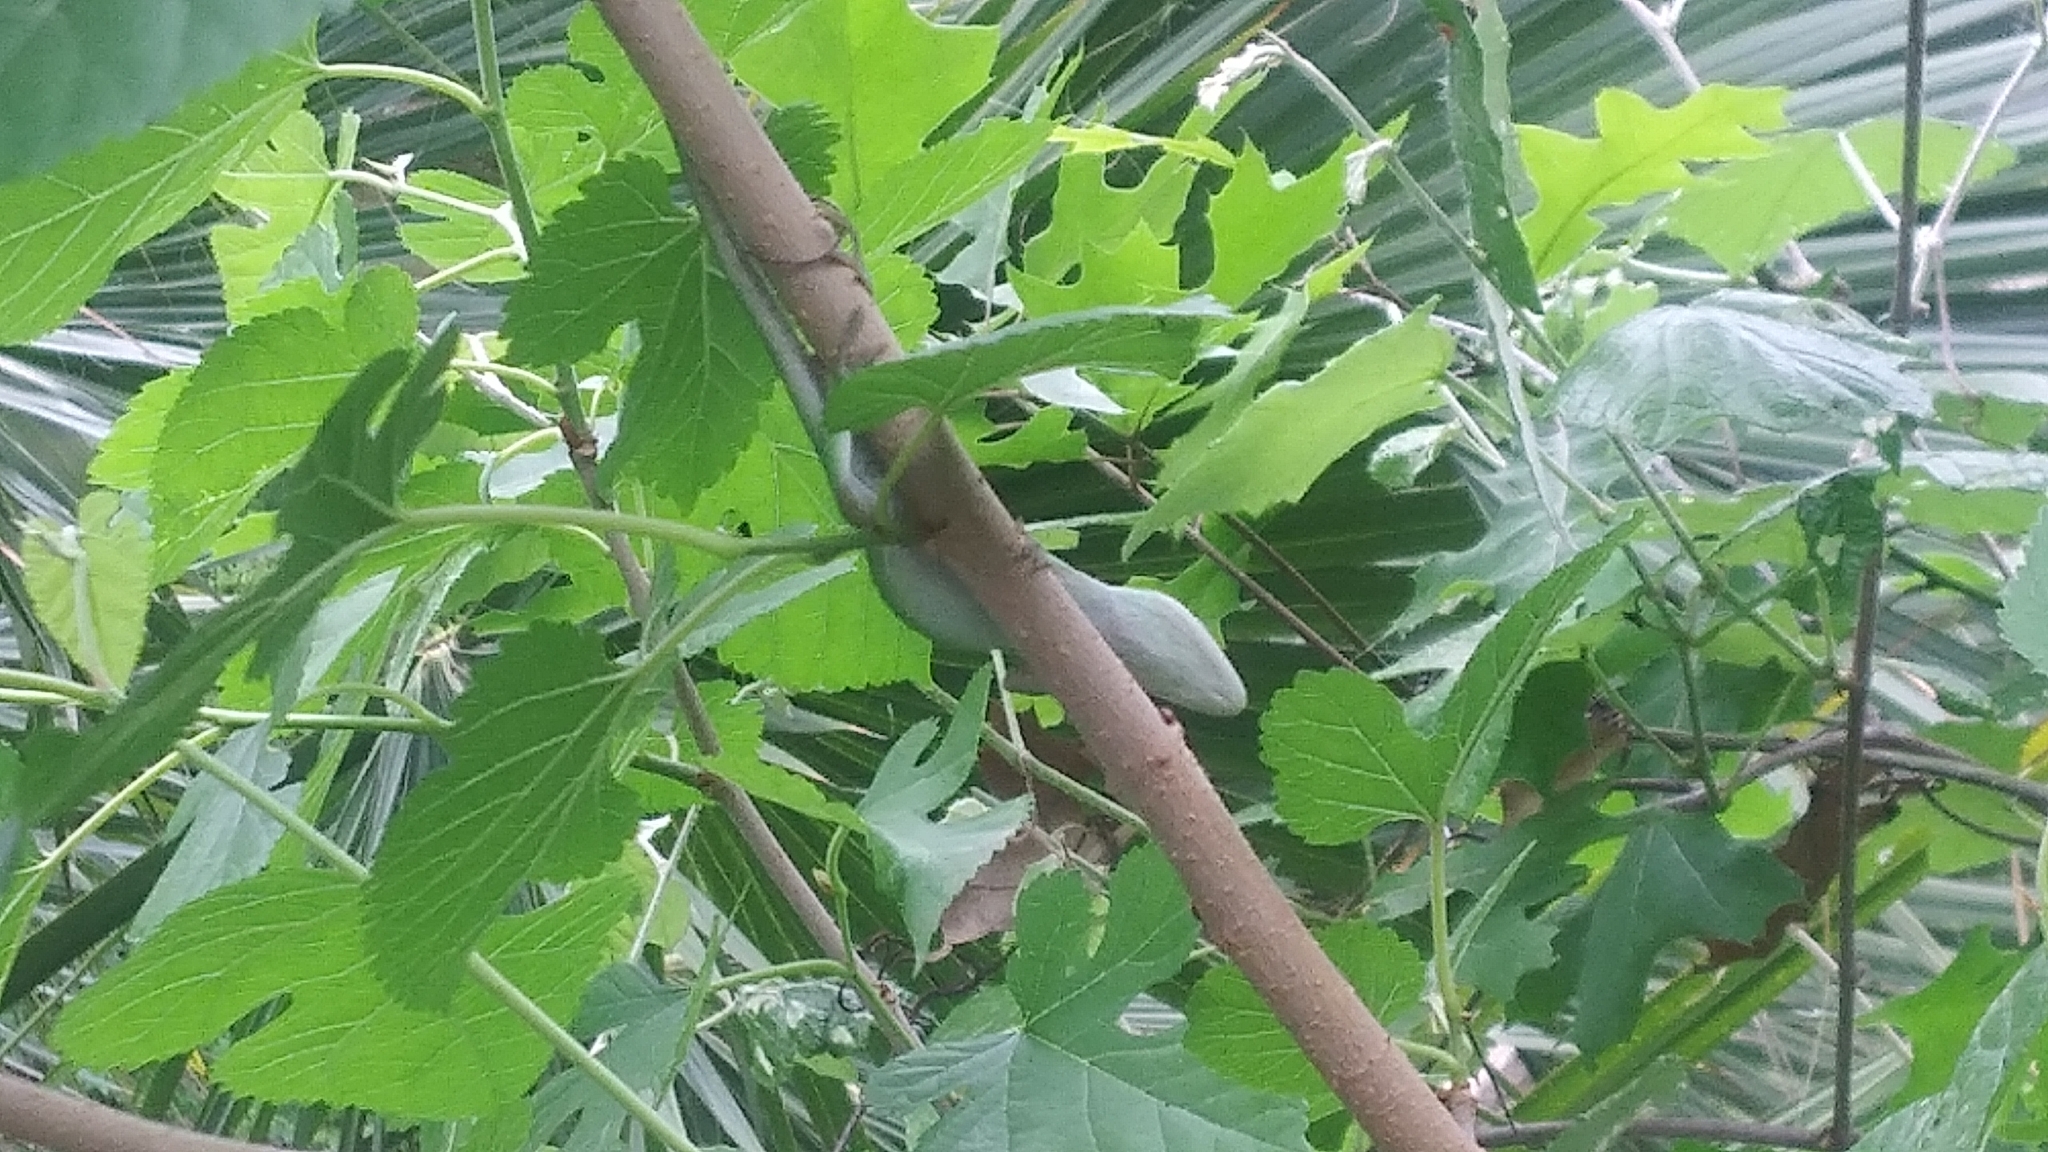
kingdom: Animalia
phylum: Chordata
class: Squamata
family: Dactyloidae
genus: Anolis
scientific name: Anolis carolinensis
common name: Green anole
